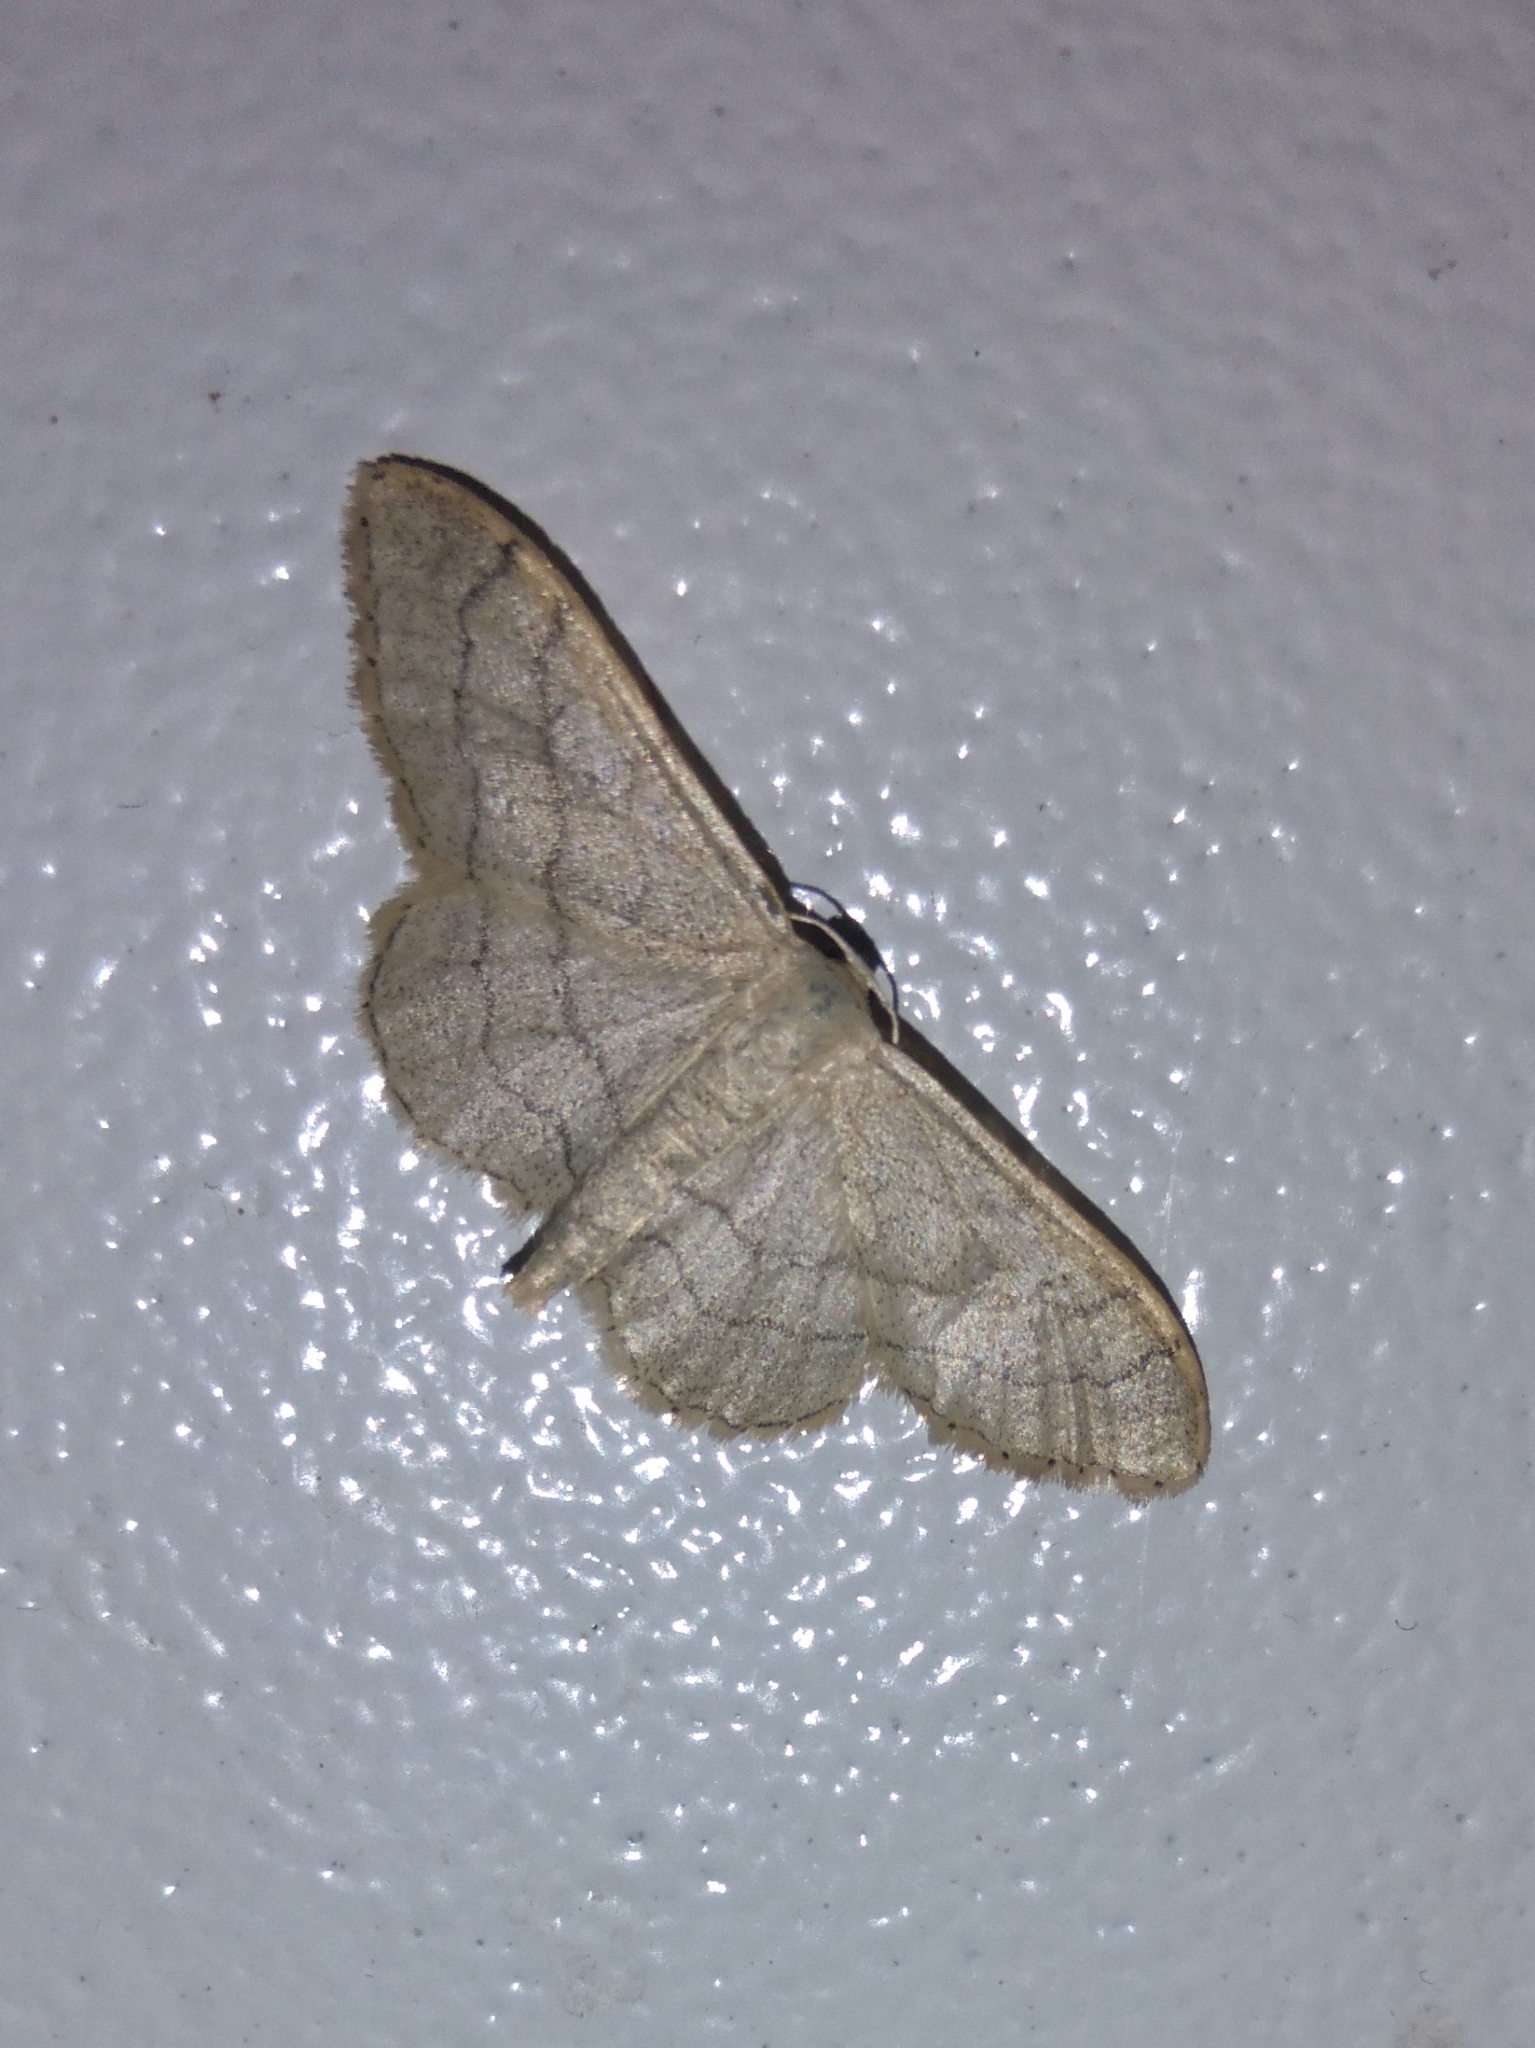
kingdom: Animalia
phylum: Arthropoda
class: Insecta
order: Lepidoptera
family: Geometridae
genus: Idaea
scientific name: Idaea aversata
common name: Riband wave
